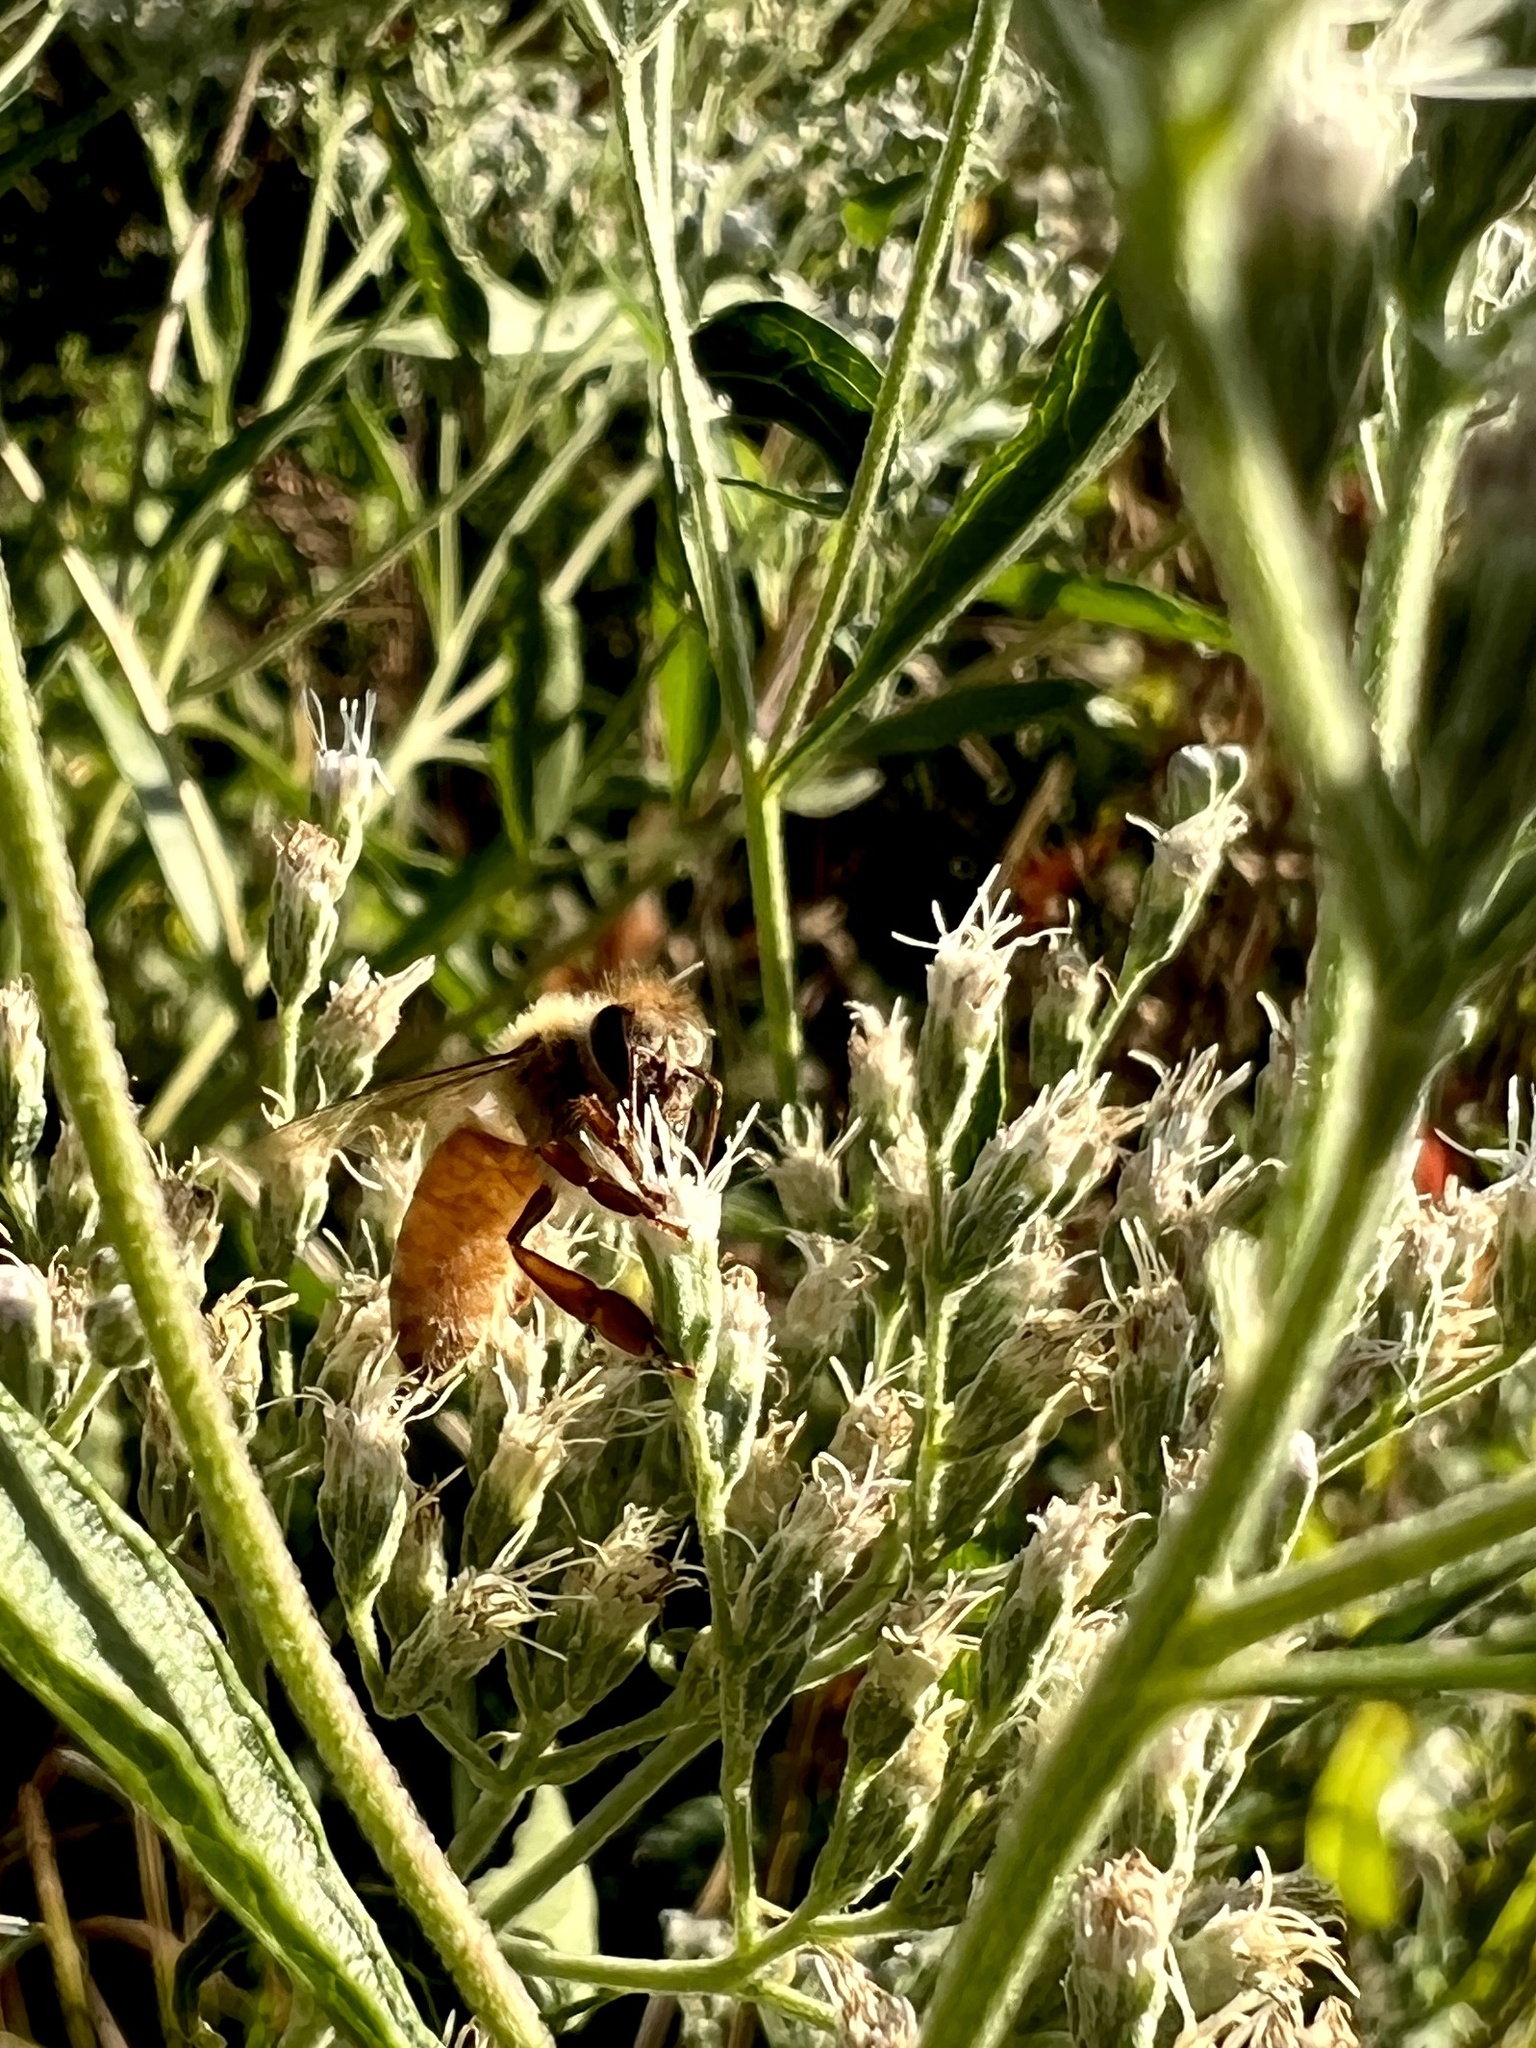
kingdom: Animalia
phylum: Arthropoda
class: Insecta
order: Hymenoptera
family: Apidae
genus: Apis
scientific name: Apis mellifera
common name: Honey bee
